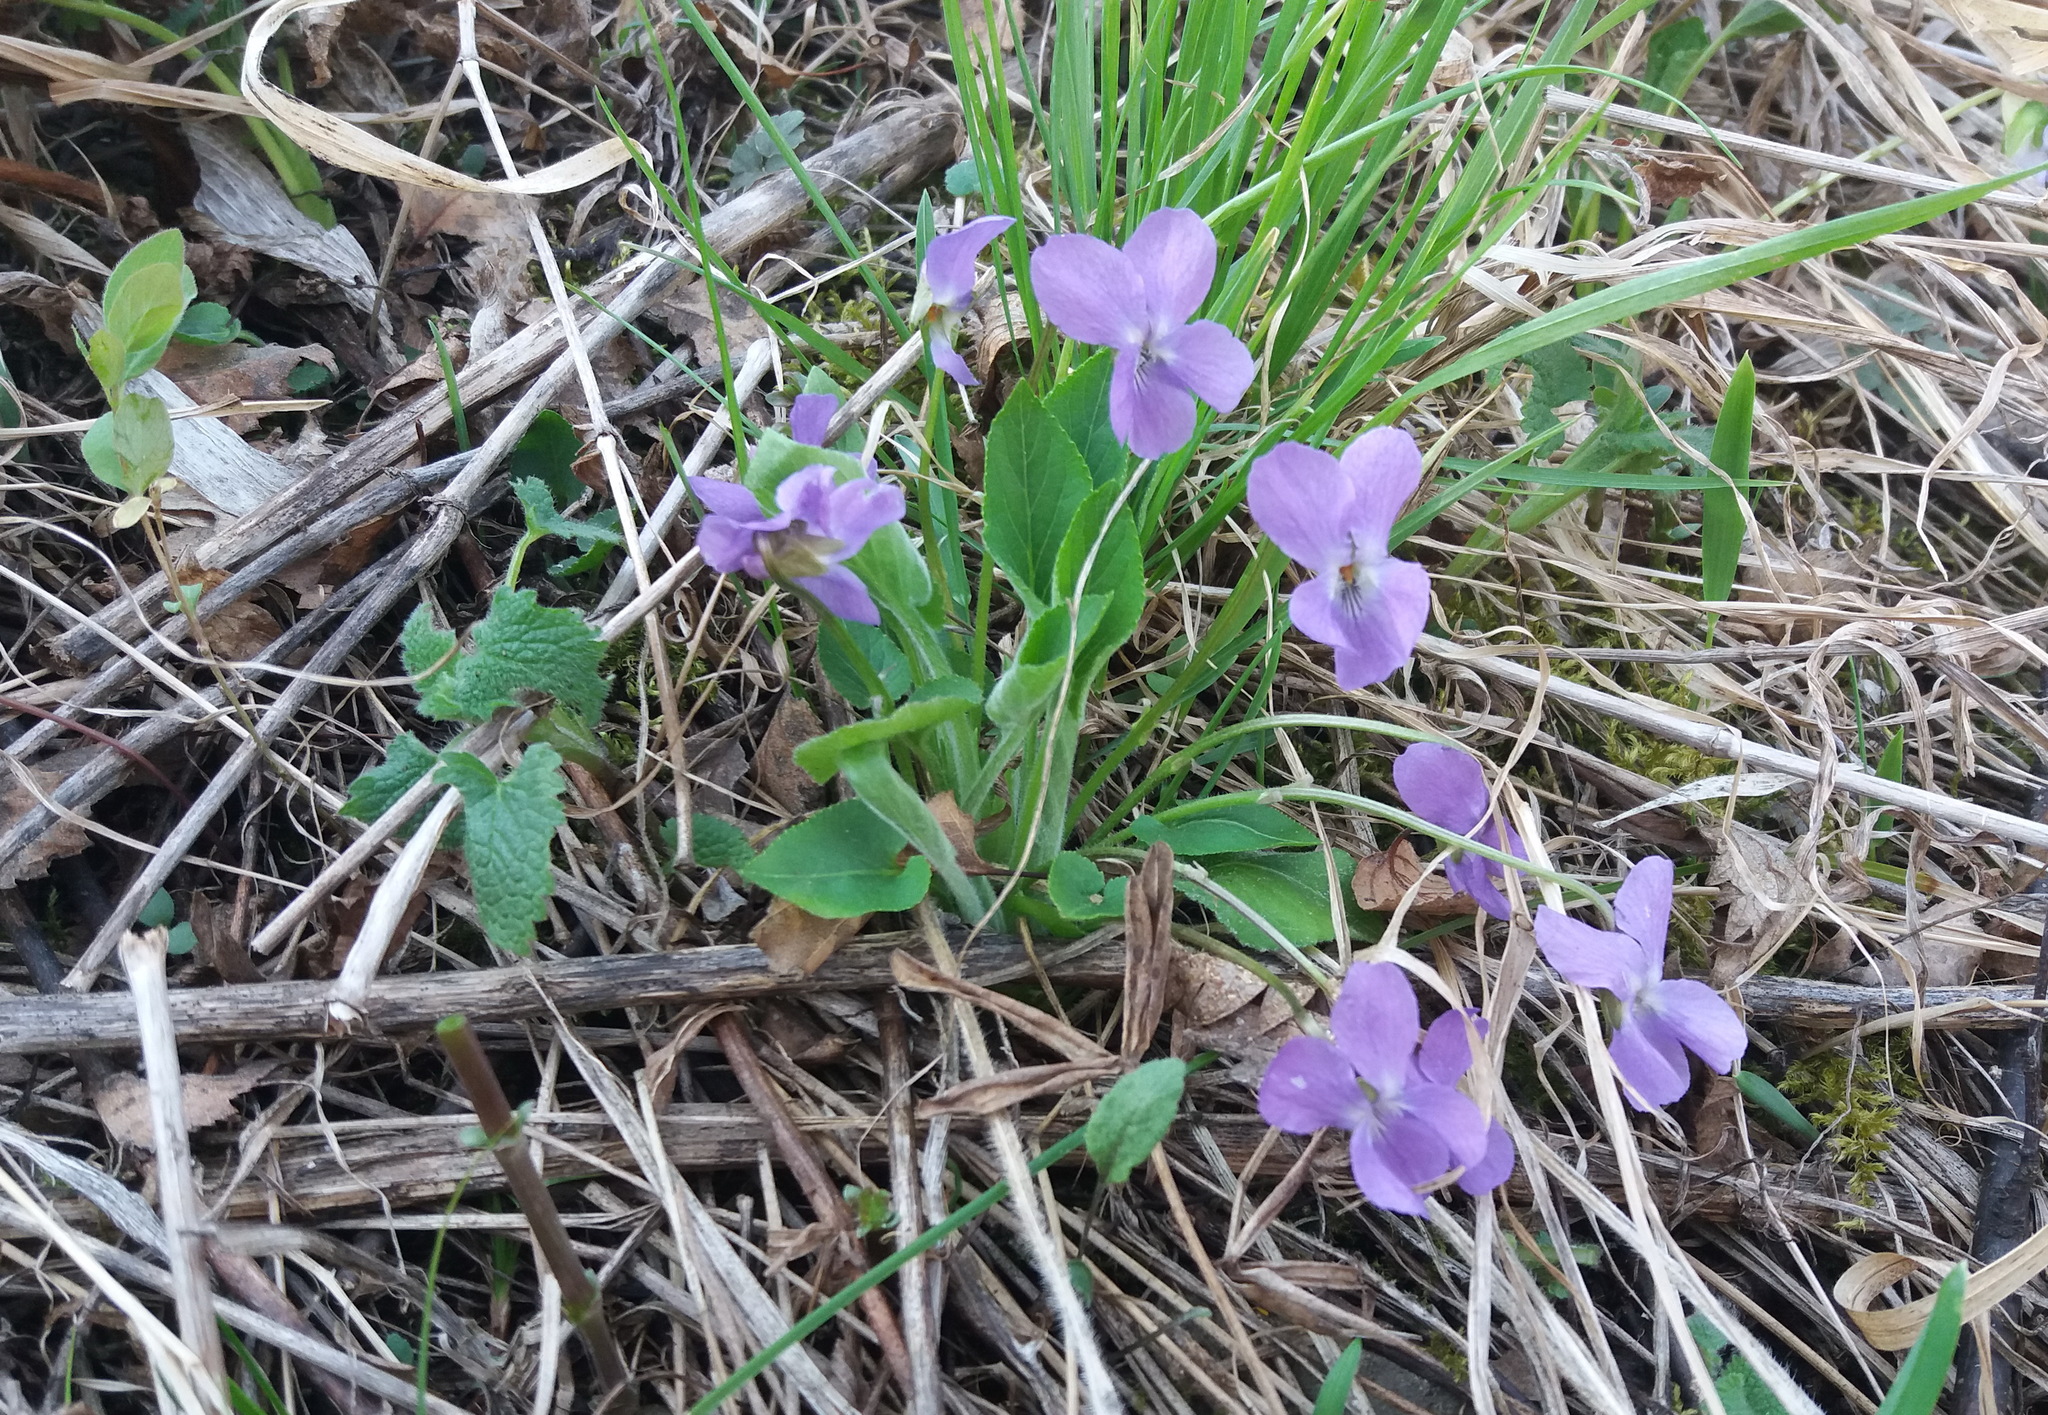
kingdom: Plantae
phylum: Tracheophyta
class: Magnoliopsida
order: Malpighiales
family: Violaceae
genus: Viola
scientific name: Viola hirta
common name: Hairy violet
